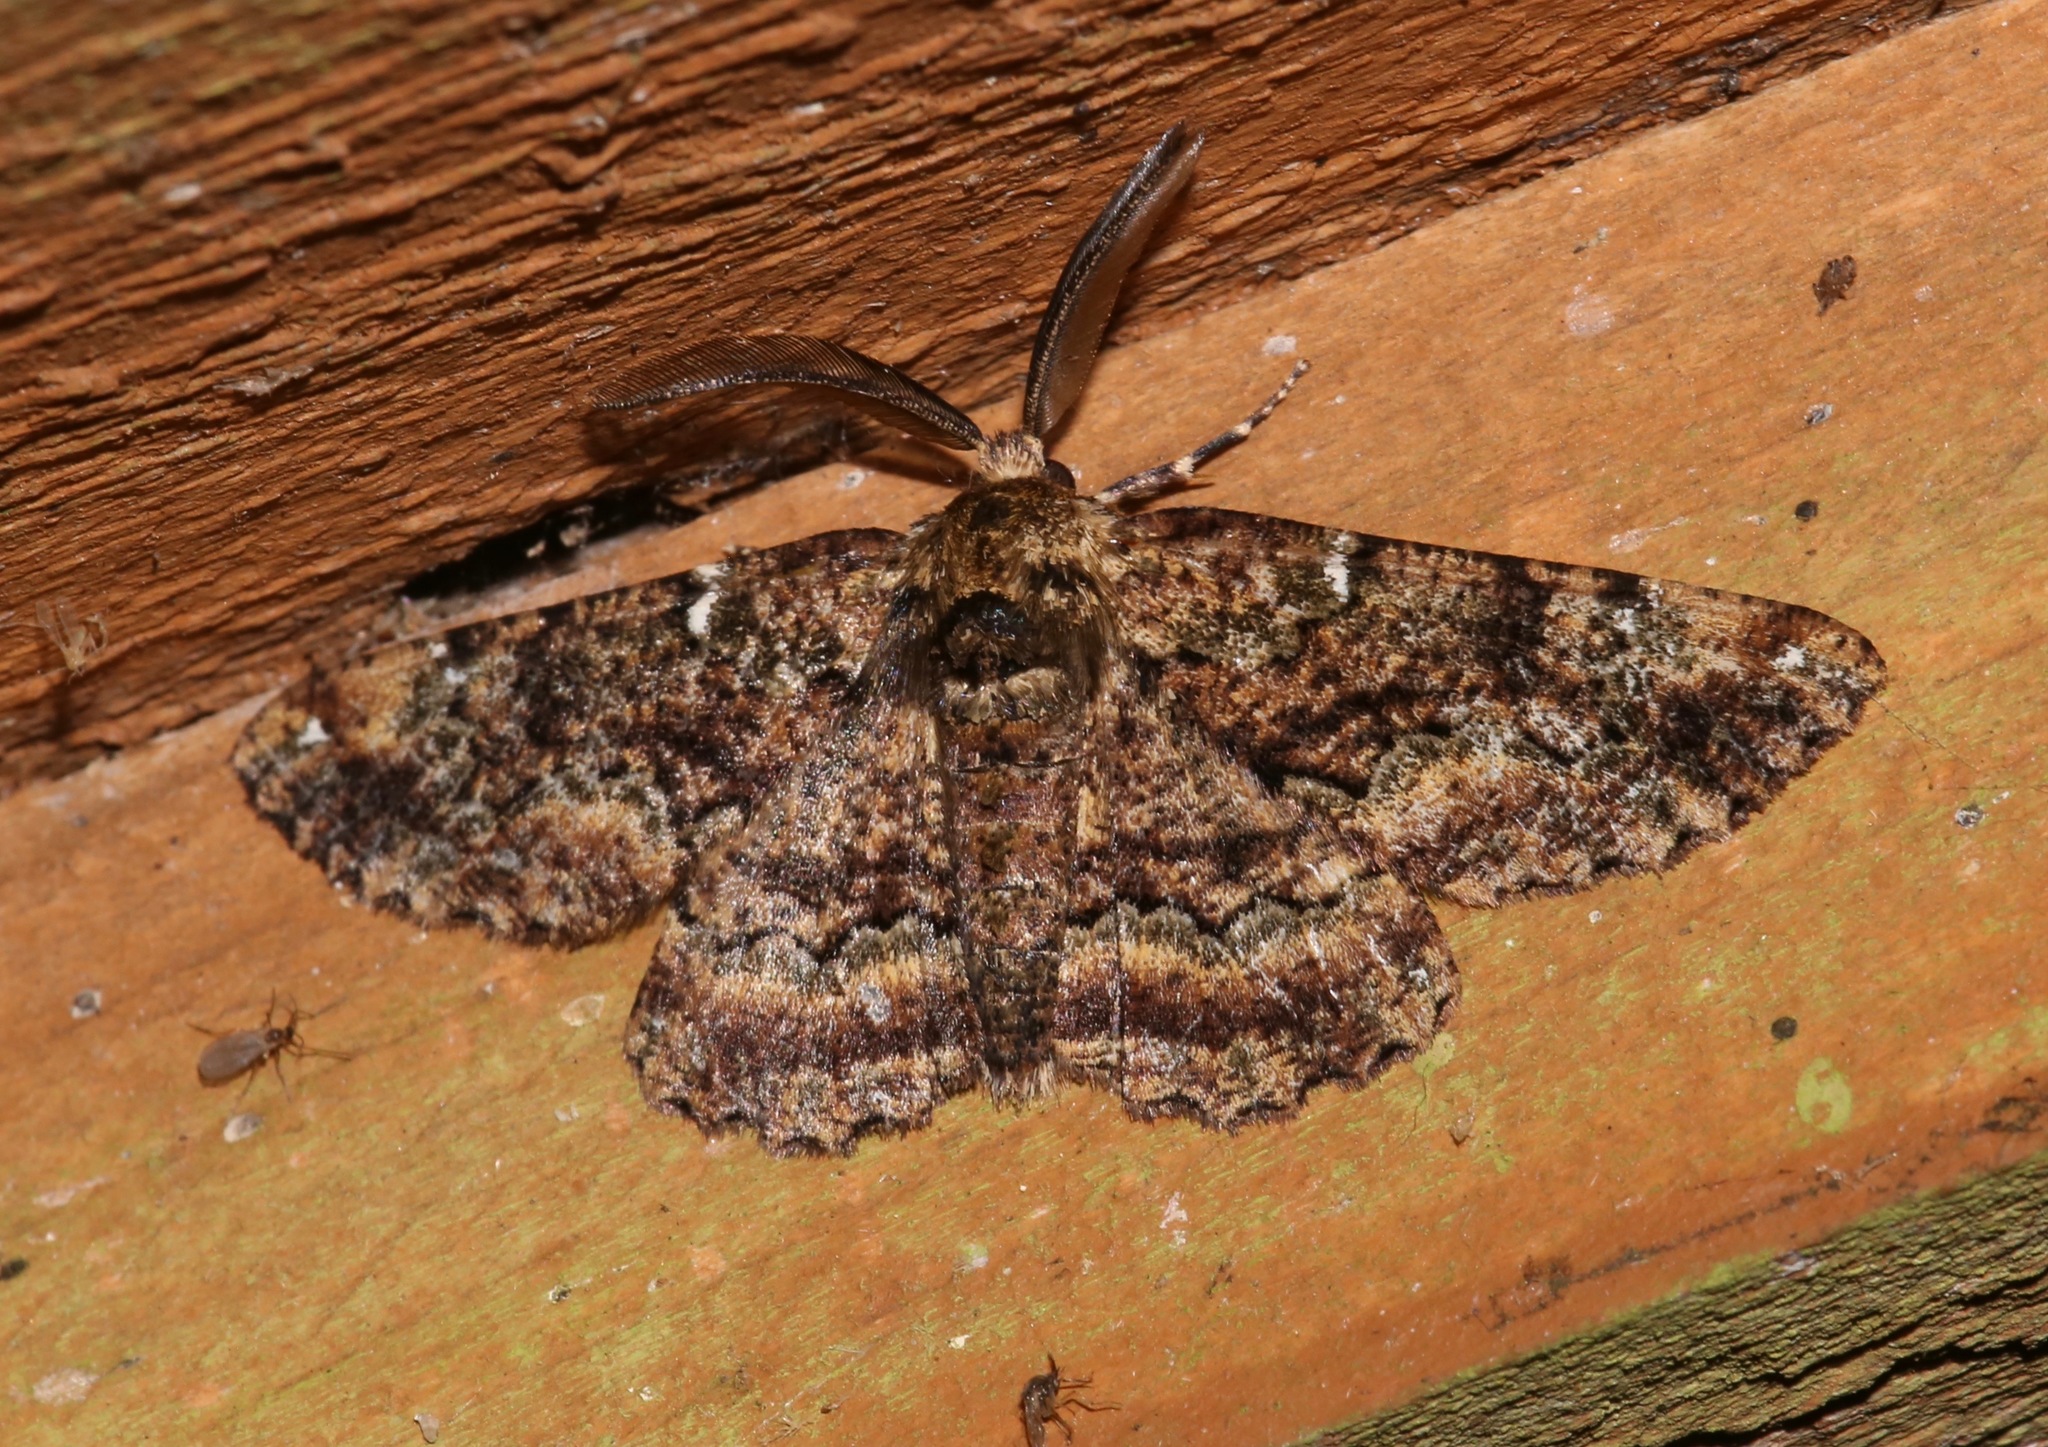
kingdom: Animalia
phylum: Arthropoda
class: Insecta
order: Lepidoptera
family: Geometridae
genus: Phaeoura
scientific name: Phaeoura quernaria
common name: Oak beauty
